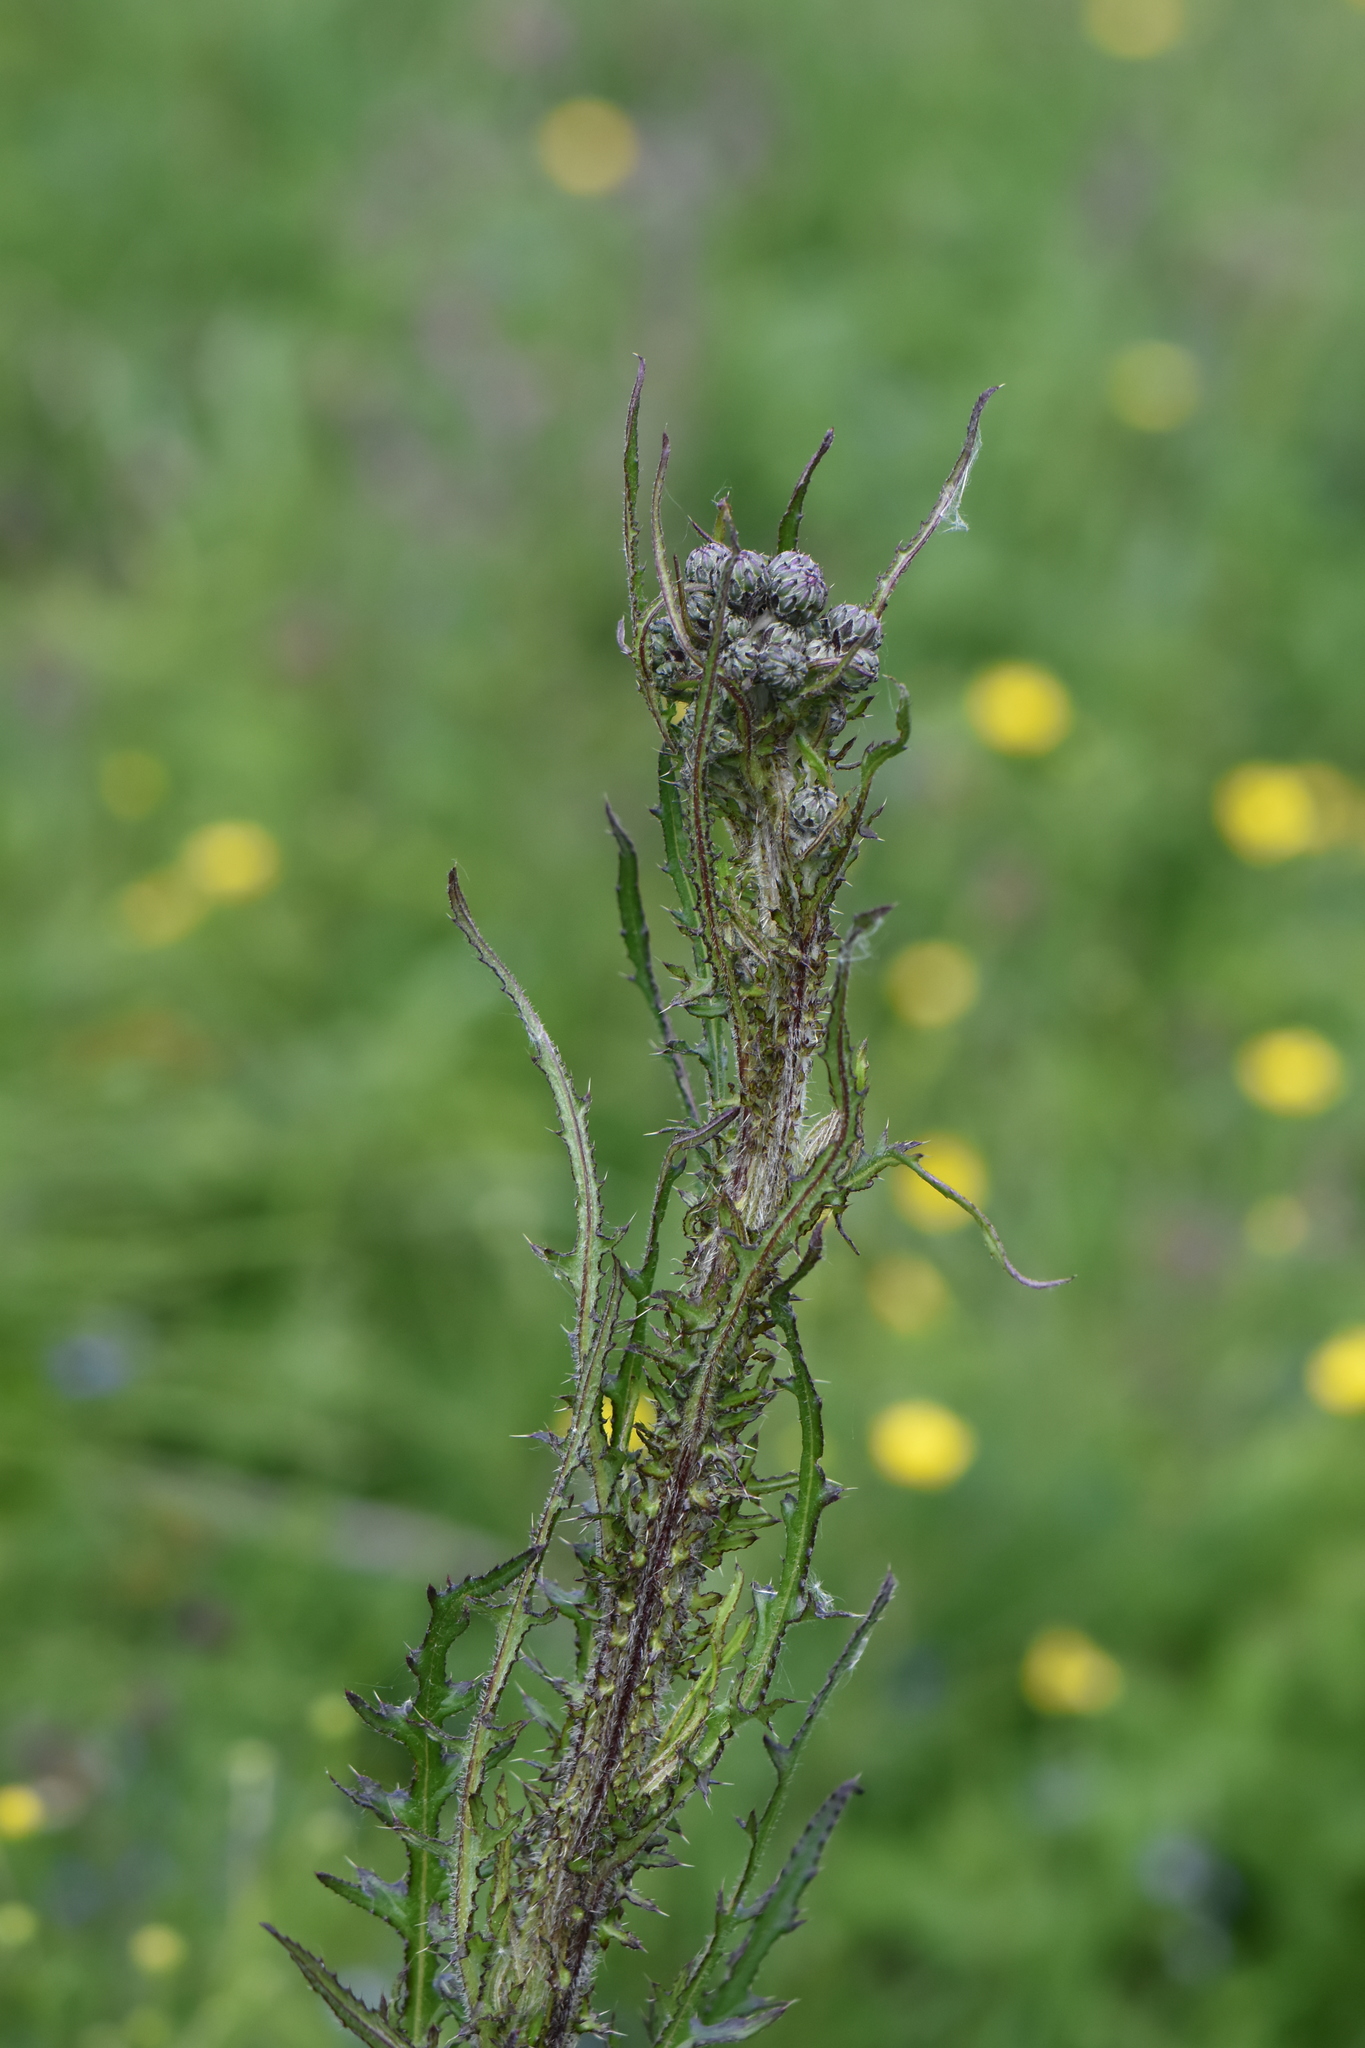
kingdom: Plantae
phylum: Tracheophyta
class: Magnoliopsida
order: Asterales
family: Asteraceae
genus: Cirsium
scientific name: Cirsium palustre
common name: Marsh thistle
